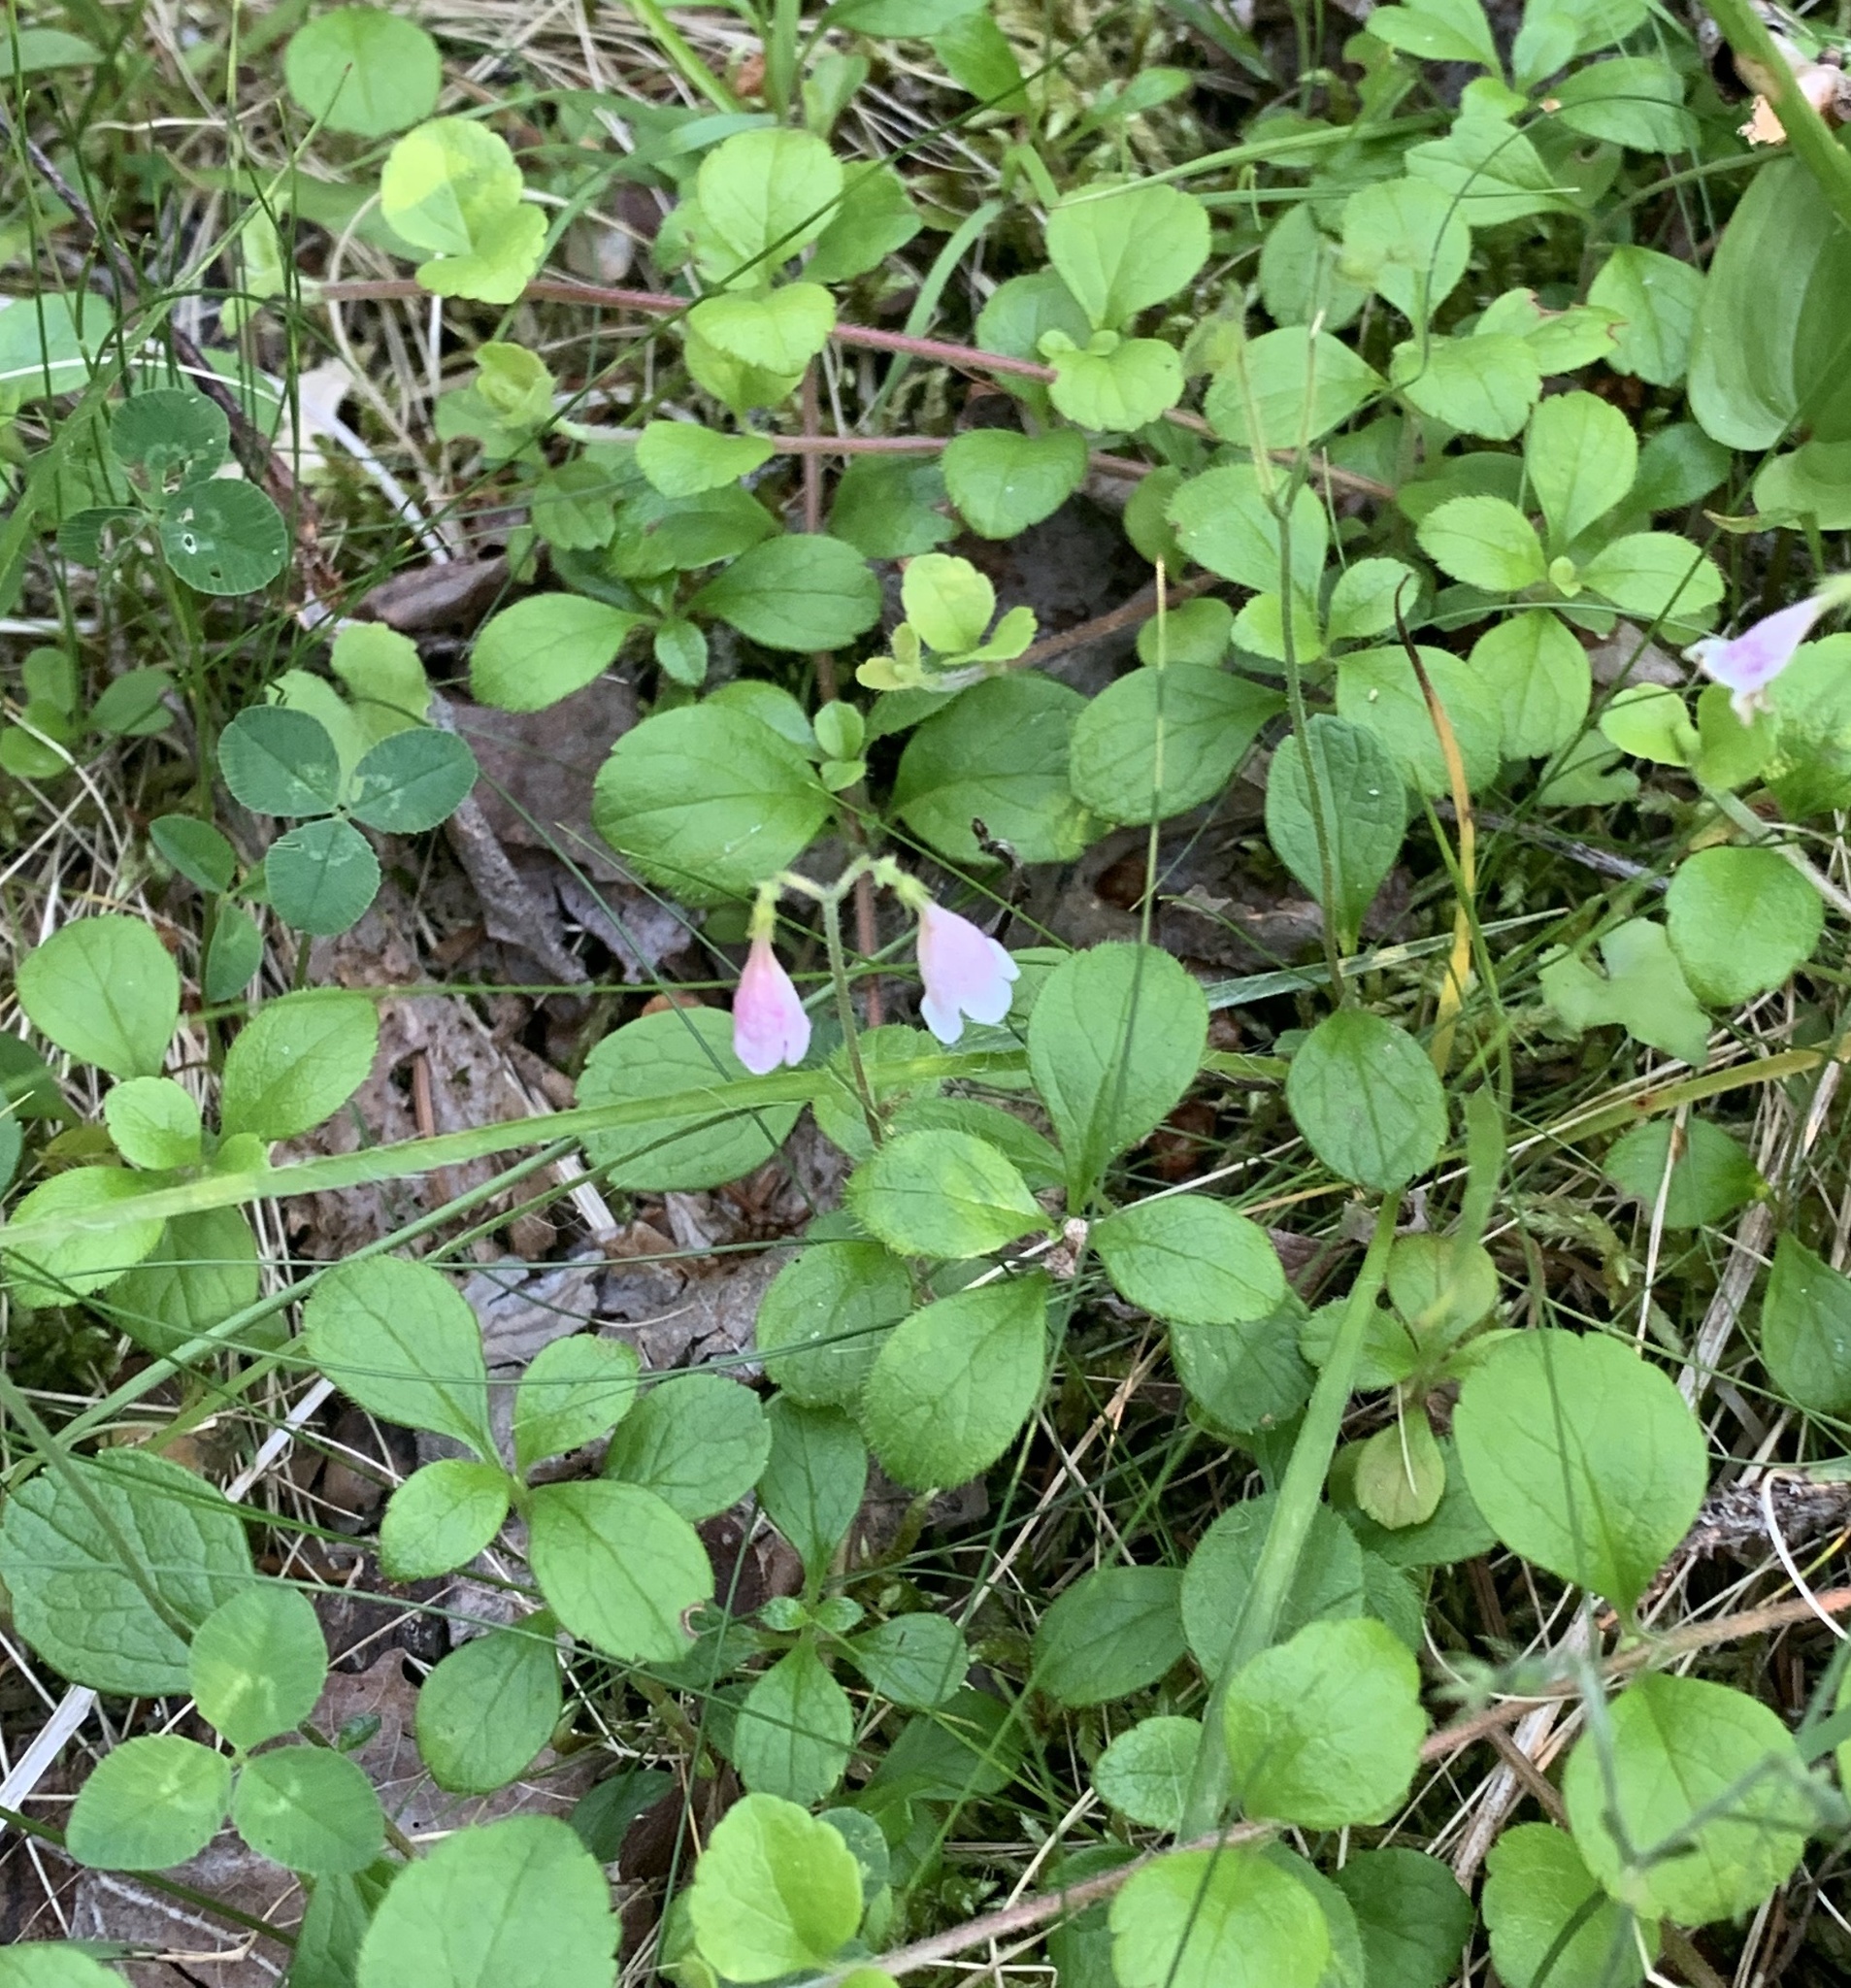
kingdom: Plantae
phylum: Tracheophyta
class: Magnoliopsida
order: Dipsacales
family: Caprifoliaceae
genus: Linnaea
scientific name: Linnaea borealis
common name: Twinflower
